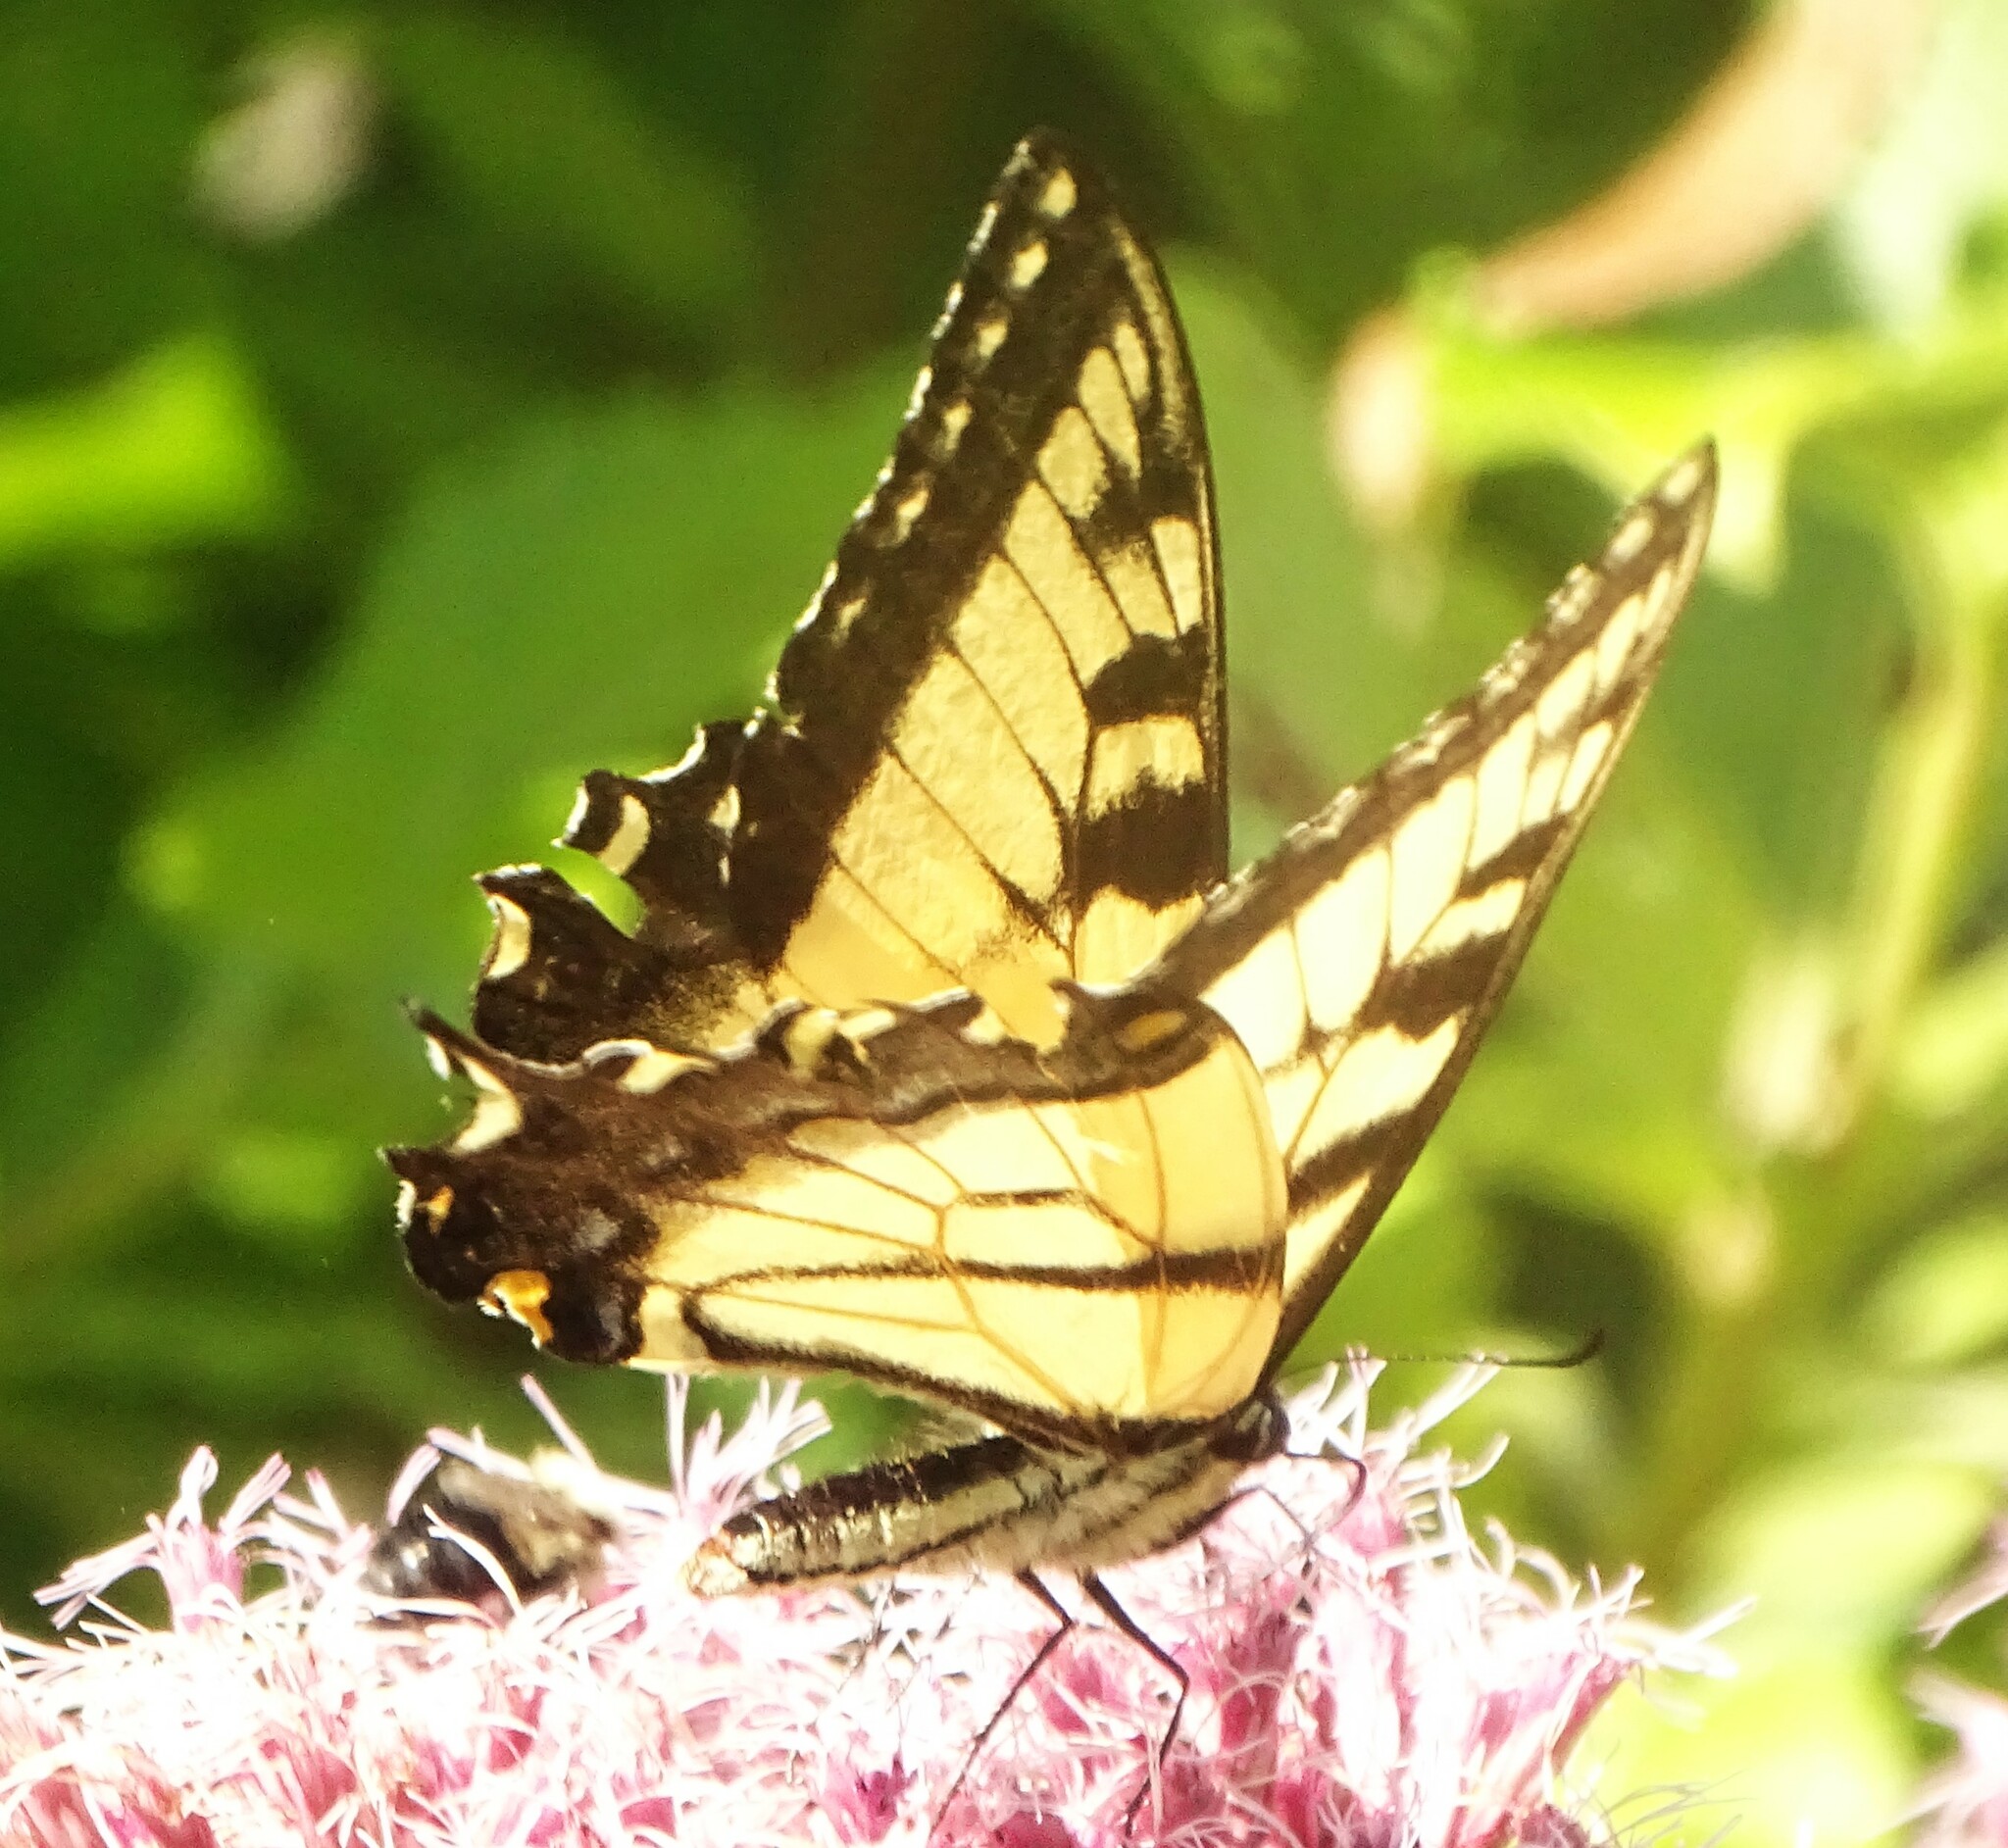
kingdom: Animalia
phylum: Arthropoda
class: Insecta
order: Lepidoptera
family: Papilionidae
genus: Papilio
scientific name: Papilio glaucus
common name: Tiger swallowtail
